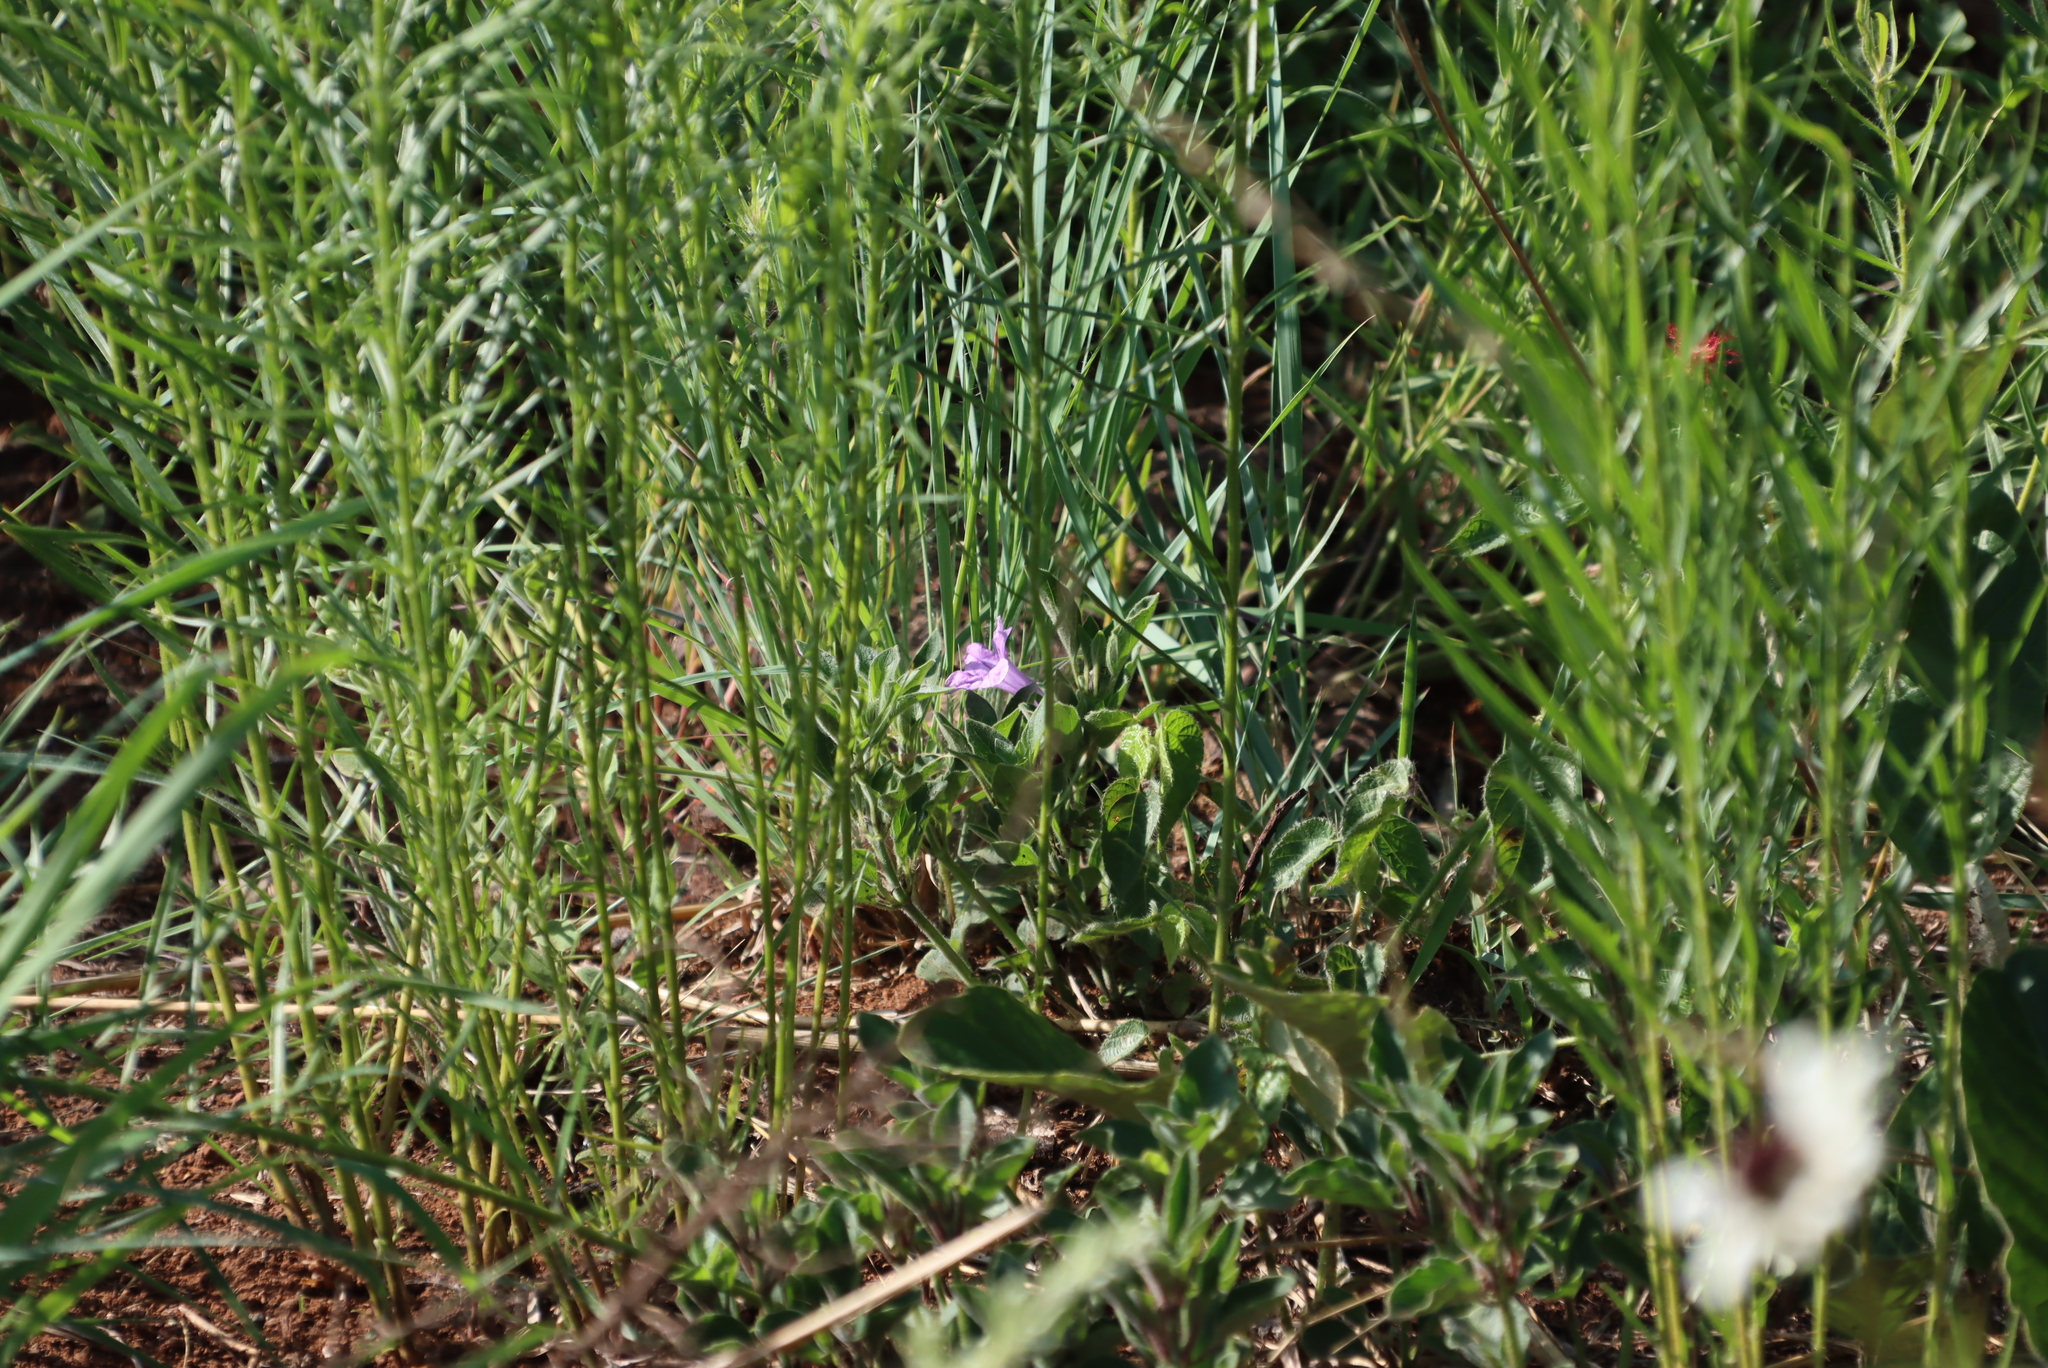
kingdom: Plantae
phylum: Tracheophyta
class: Magnoliopsida
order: Lamiales
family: Acanthaceae
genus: Ruellia
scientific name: Ruellia cordata
